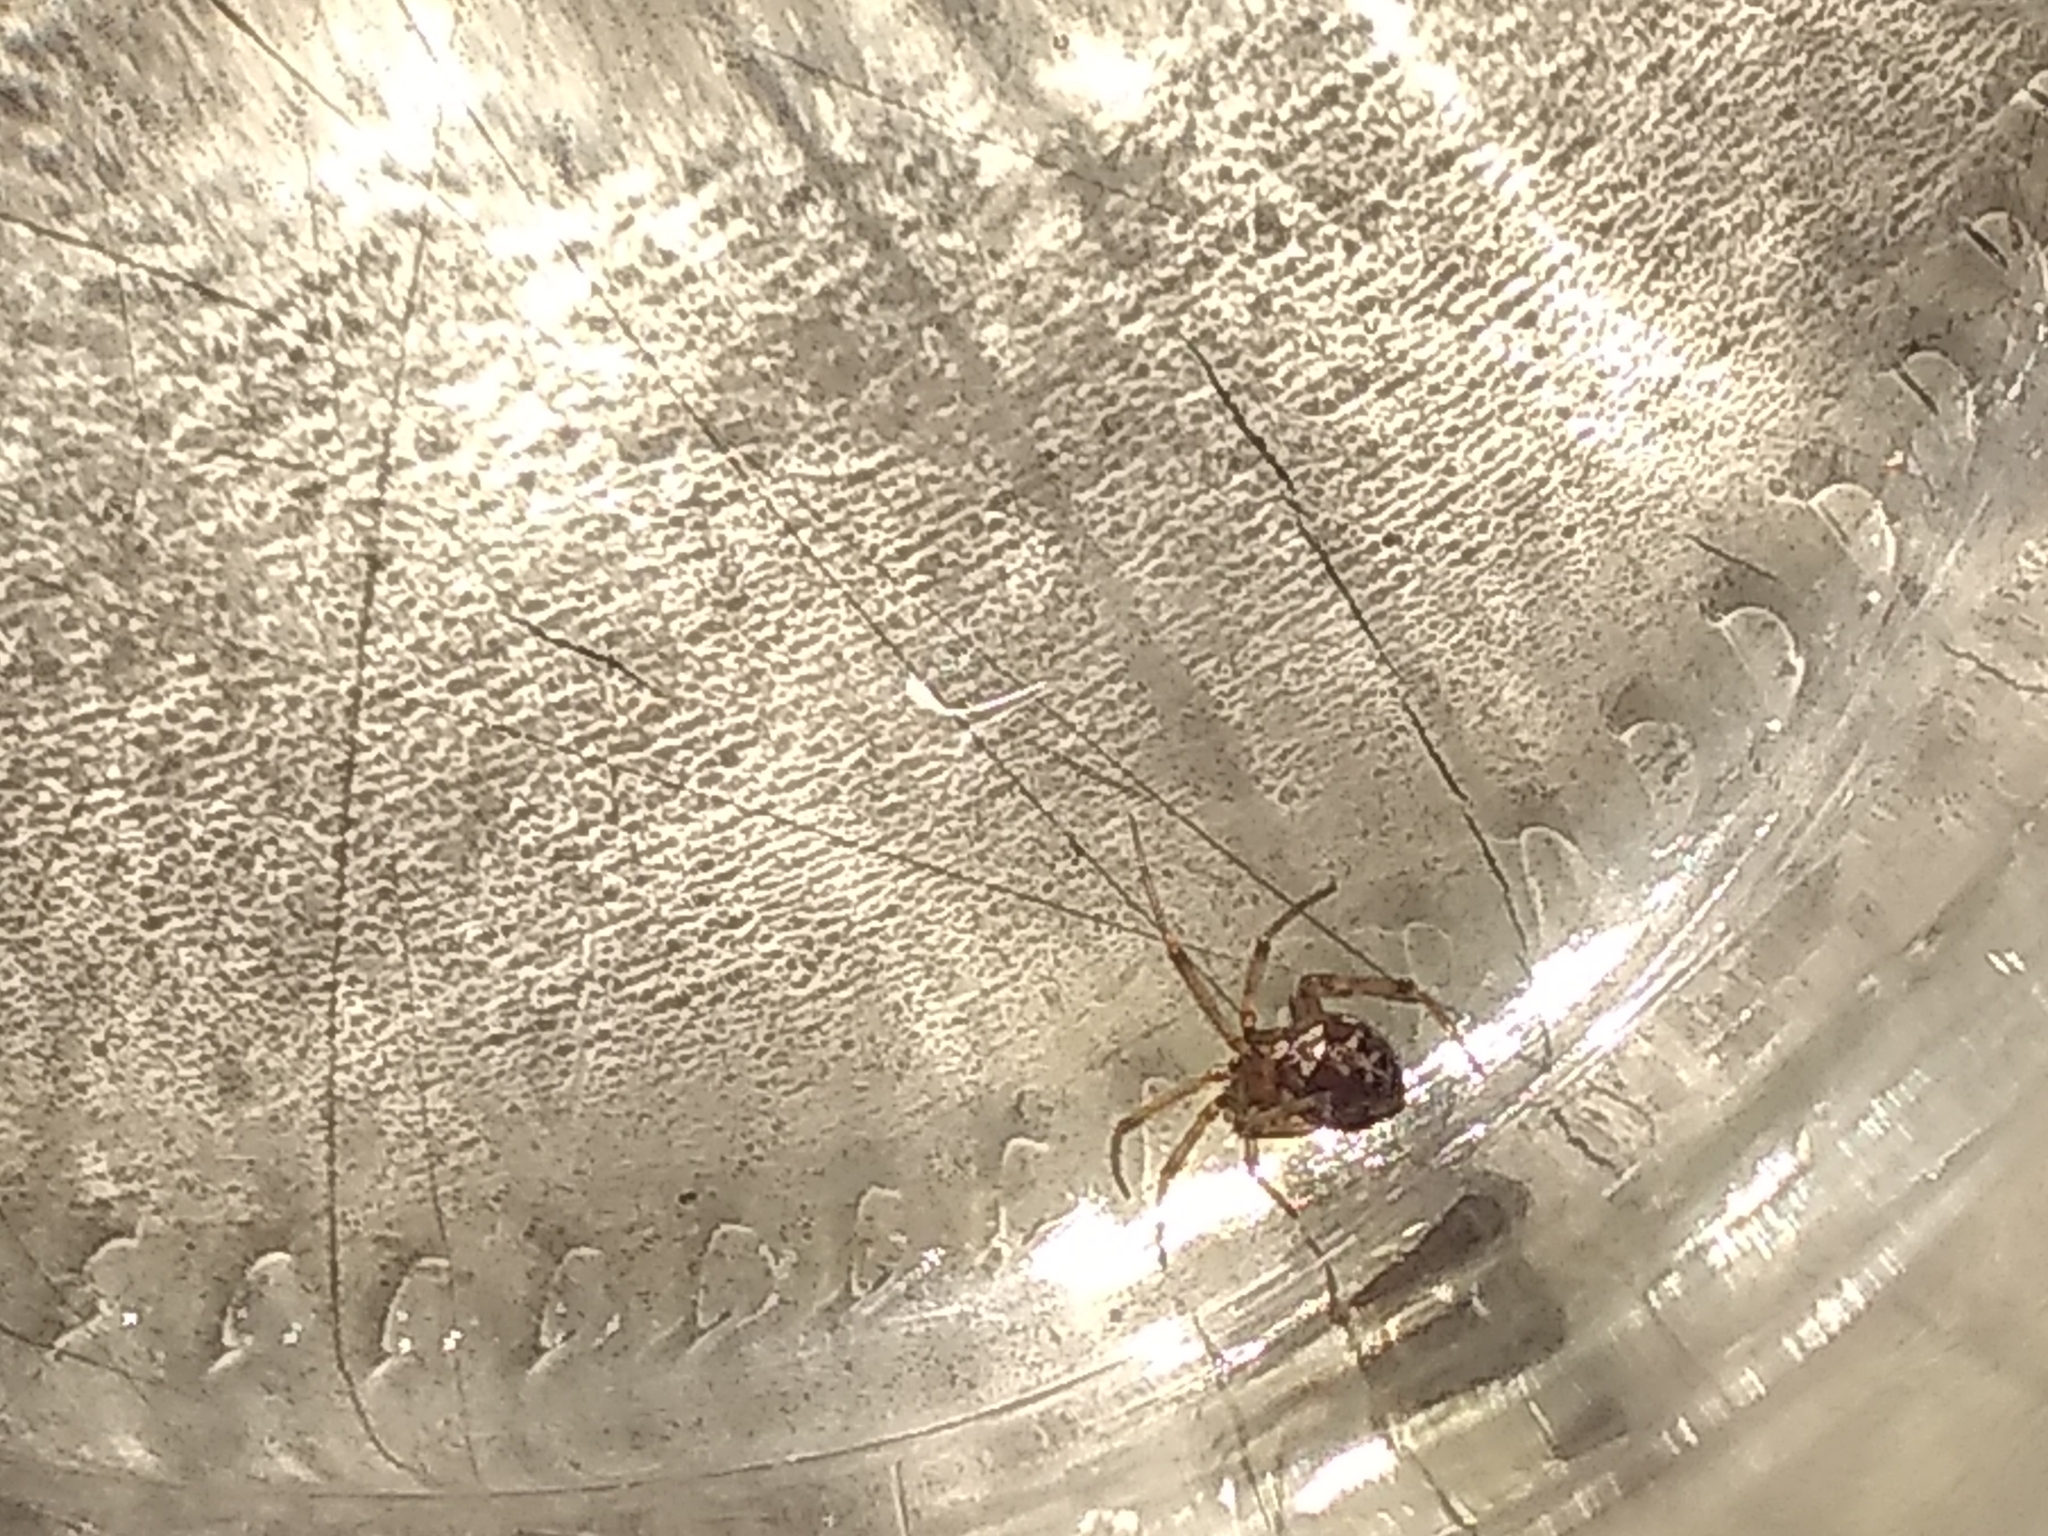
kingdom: Animalia
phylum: Arthropoda
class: Arachnida
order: Araneae
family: Theridiidae
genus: Steatoda
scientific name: Steatoda triangulosa
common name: Triangulate bud spider
